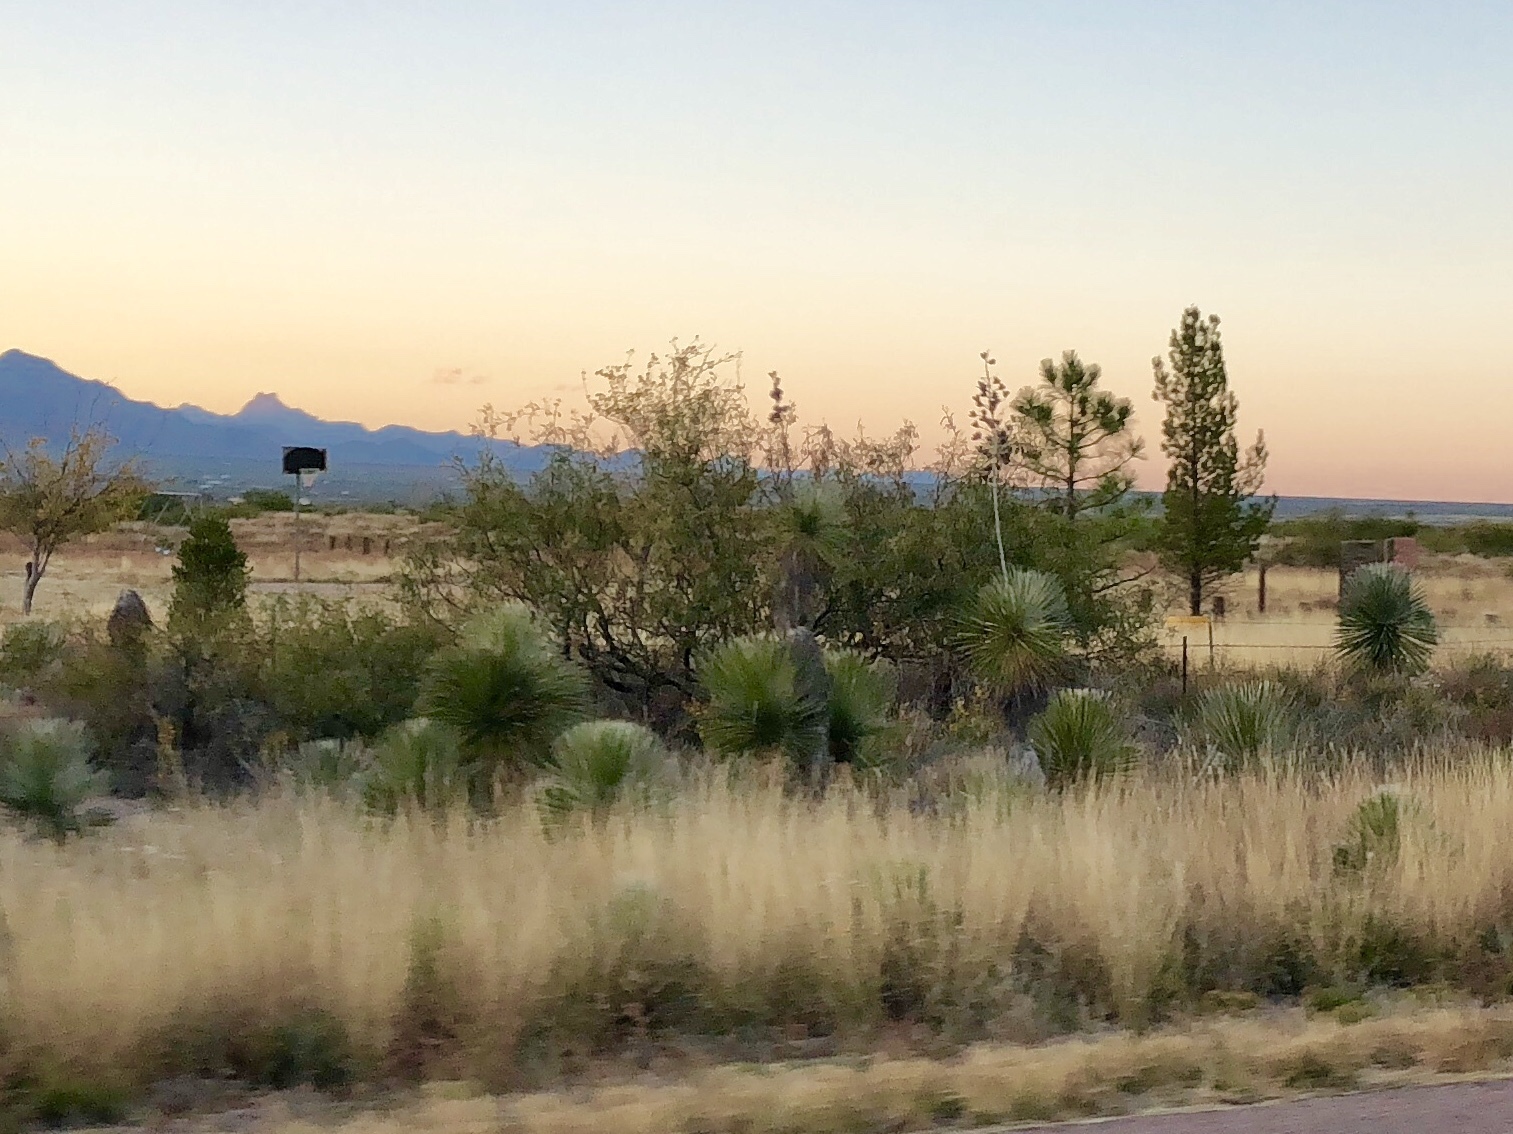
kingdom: Plantae
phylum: Tracheophyta
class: Liliopsida
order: Asparagales
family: Asparagaceae
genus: Yucca
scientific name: Yucca elata
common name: Palmella
